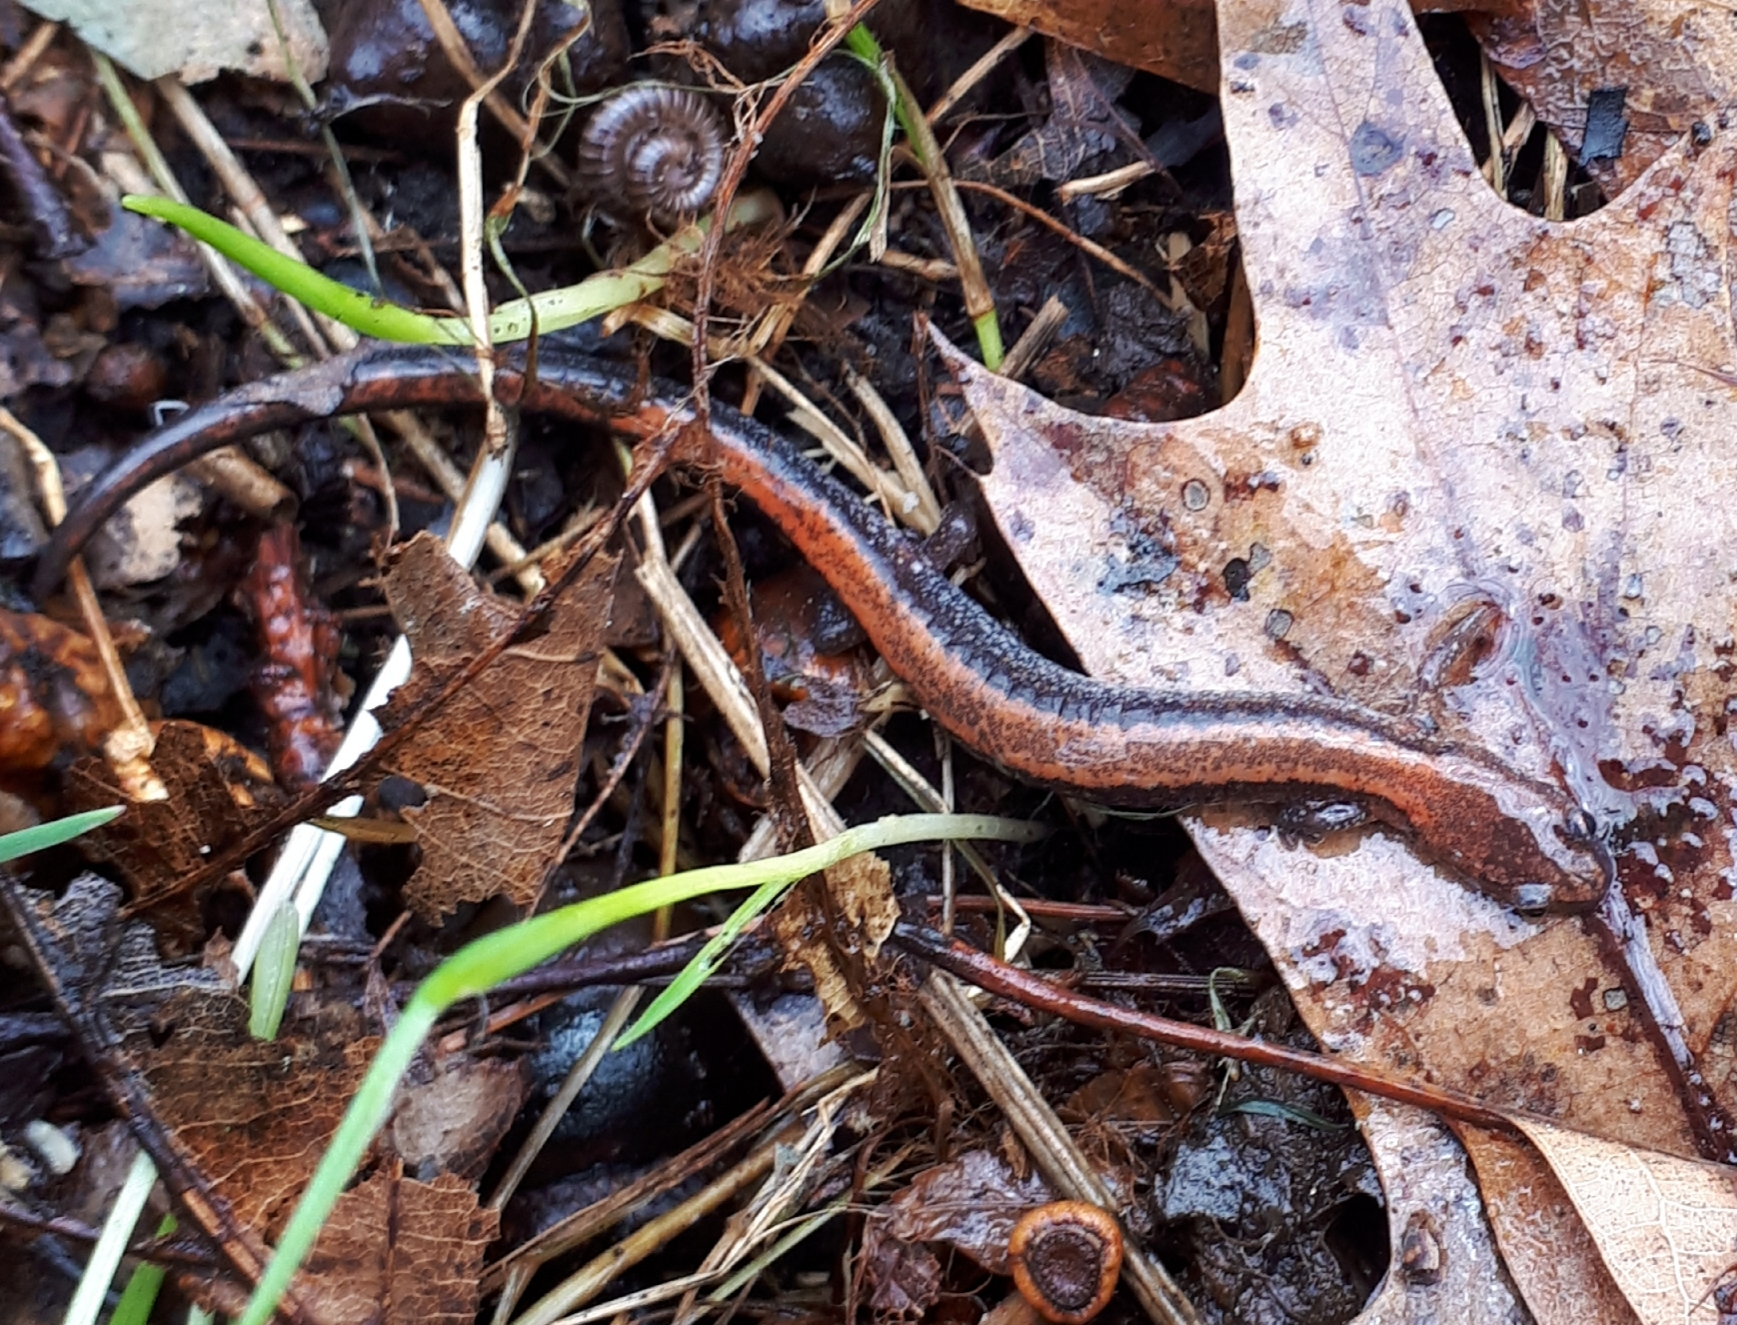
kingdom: Animalia
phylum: Chordata
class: Amphibia
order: Caudata
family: Plethodontidae
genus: Plethodon
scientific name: Plethodon cinereus
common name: Redback salamander
